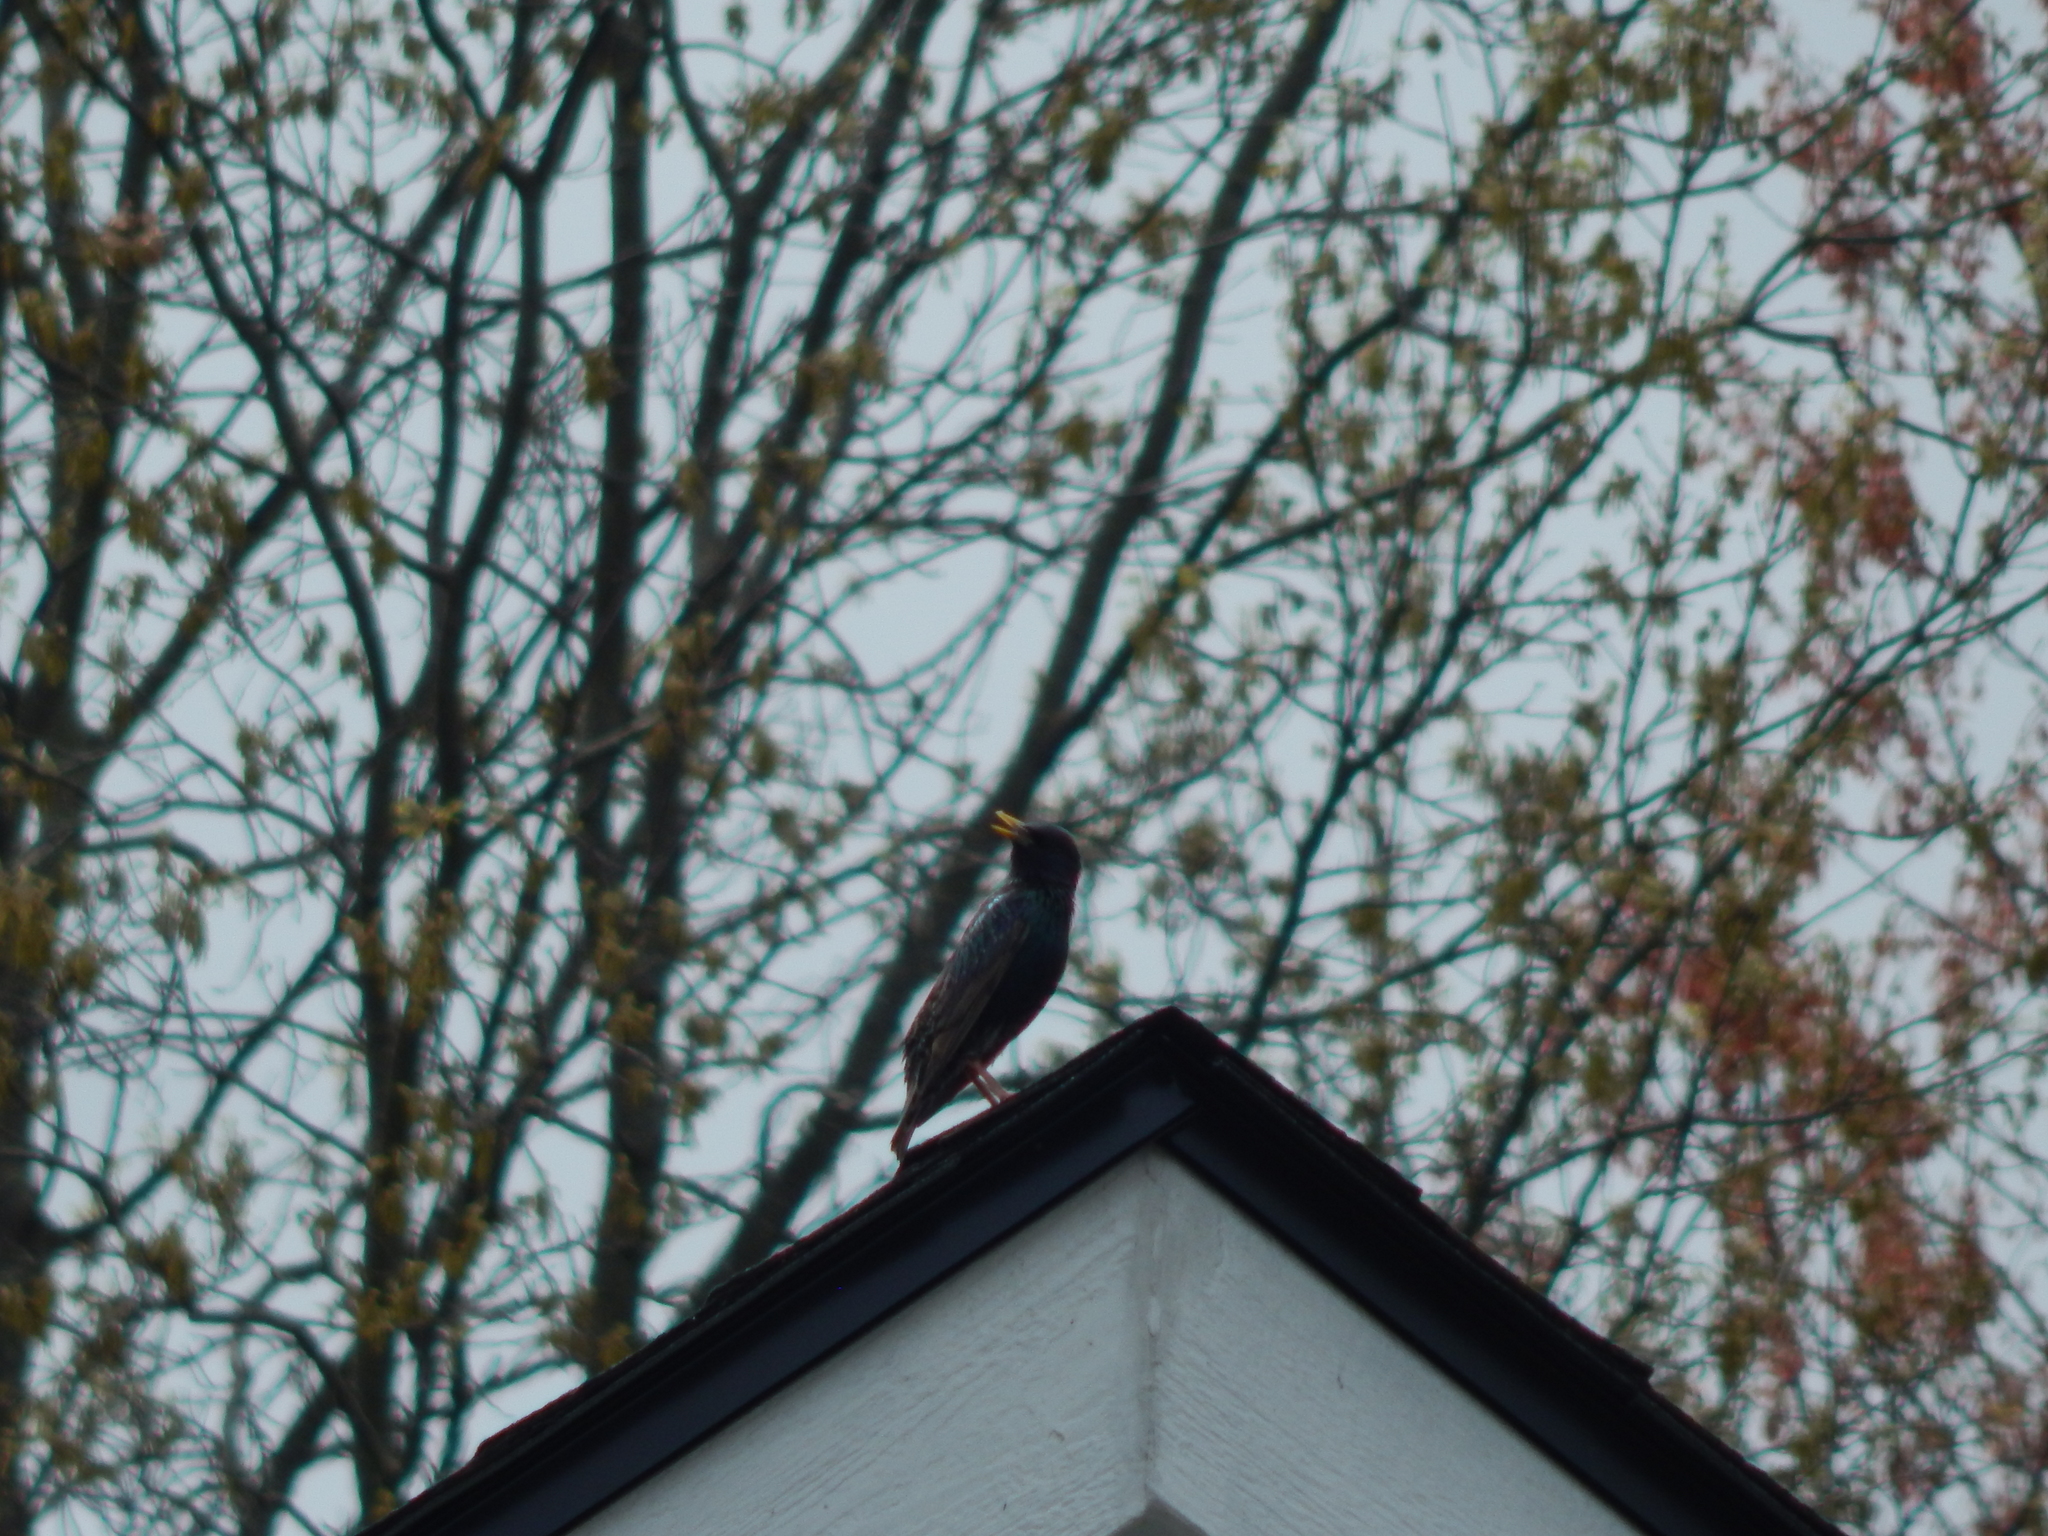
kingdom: Animalia
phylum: Chordata
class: Aves
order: Passeriformes
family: Sturnidae
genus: Sturnus
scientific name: Sturnus vulgaris
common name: Common starling
